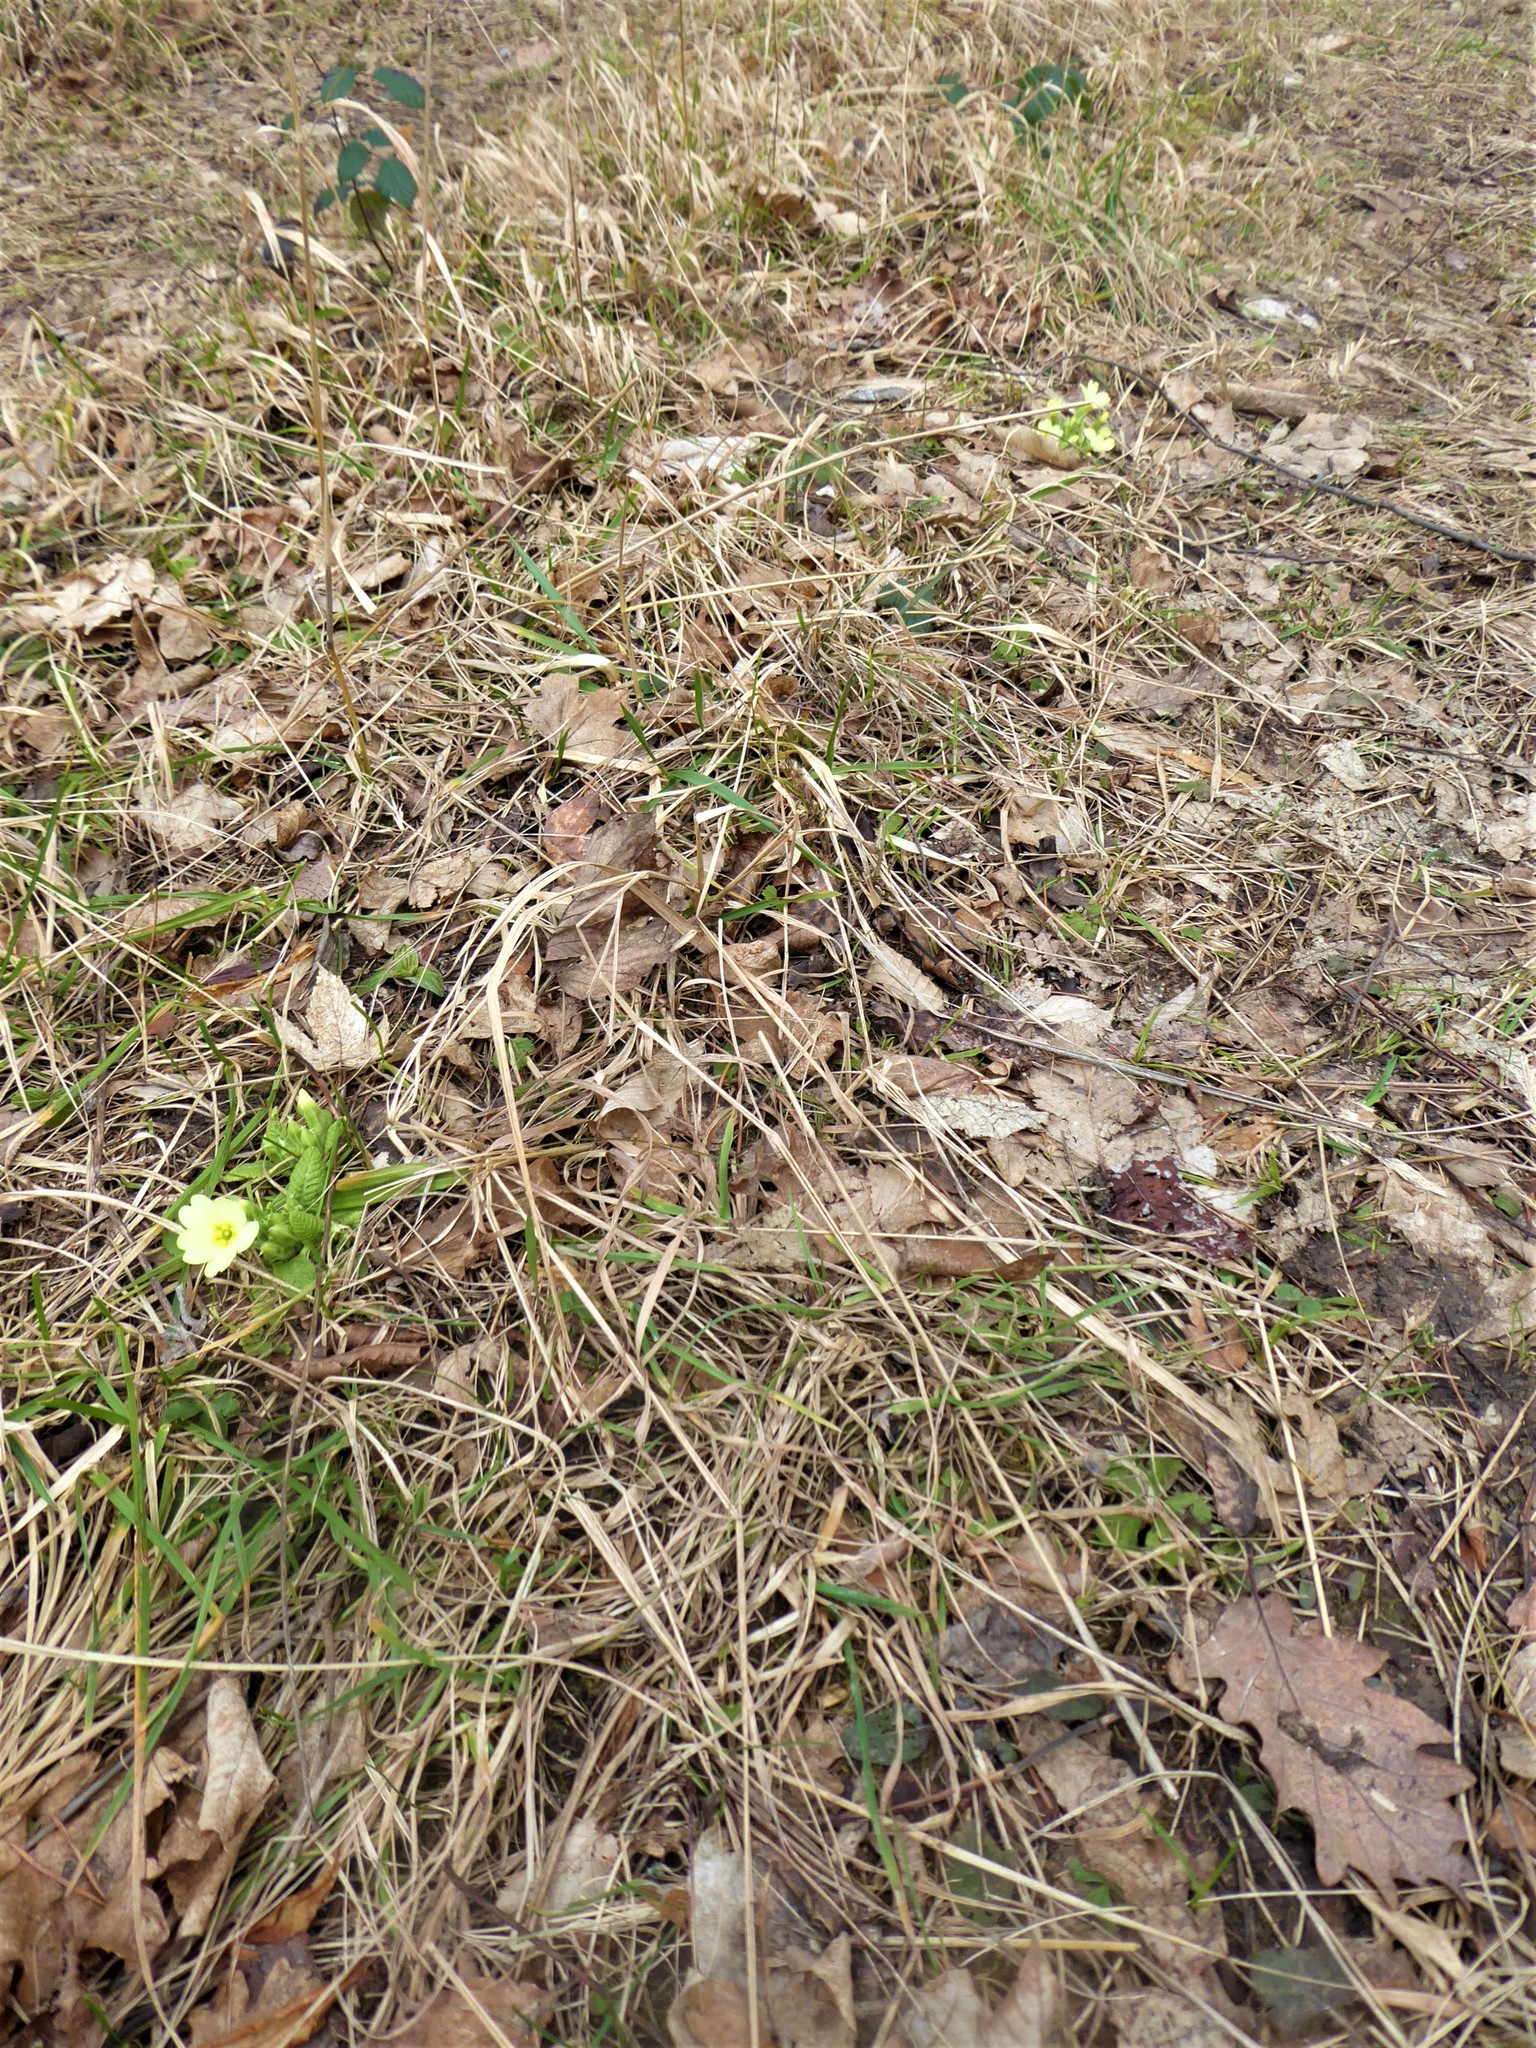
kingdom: Plantae
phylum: Tracheophyta
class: Magnoliopsida
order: Ericales
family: Primulaceae
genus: Primula
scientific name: Primula vulgaris
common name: Primrose
